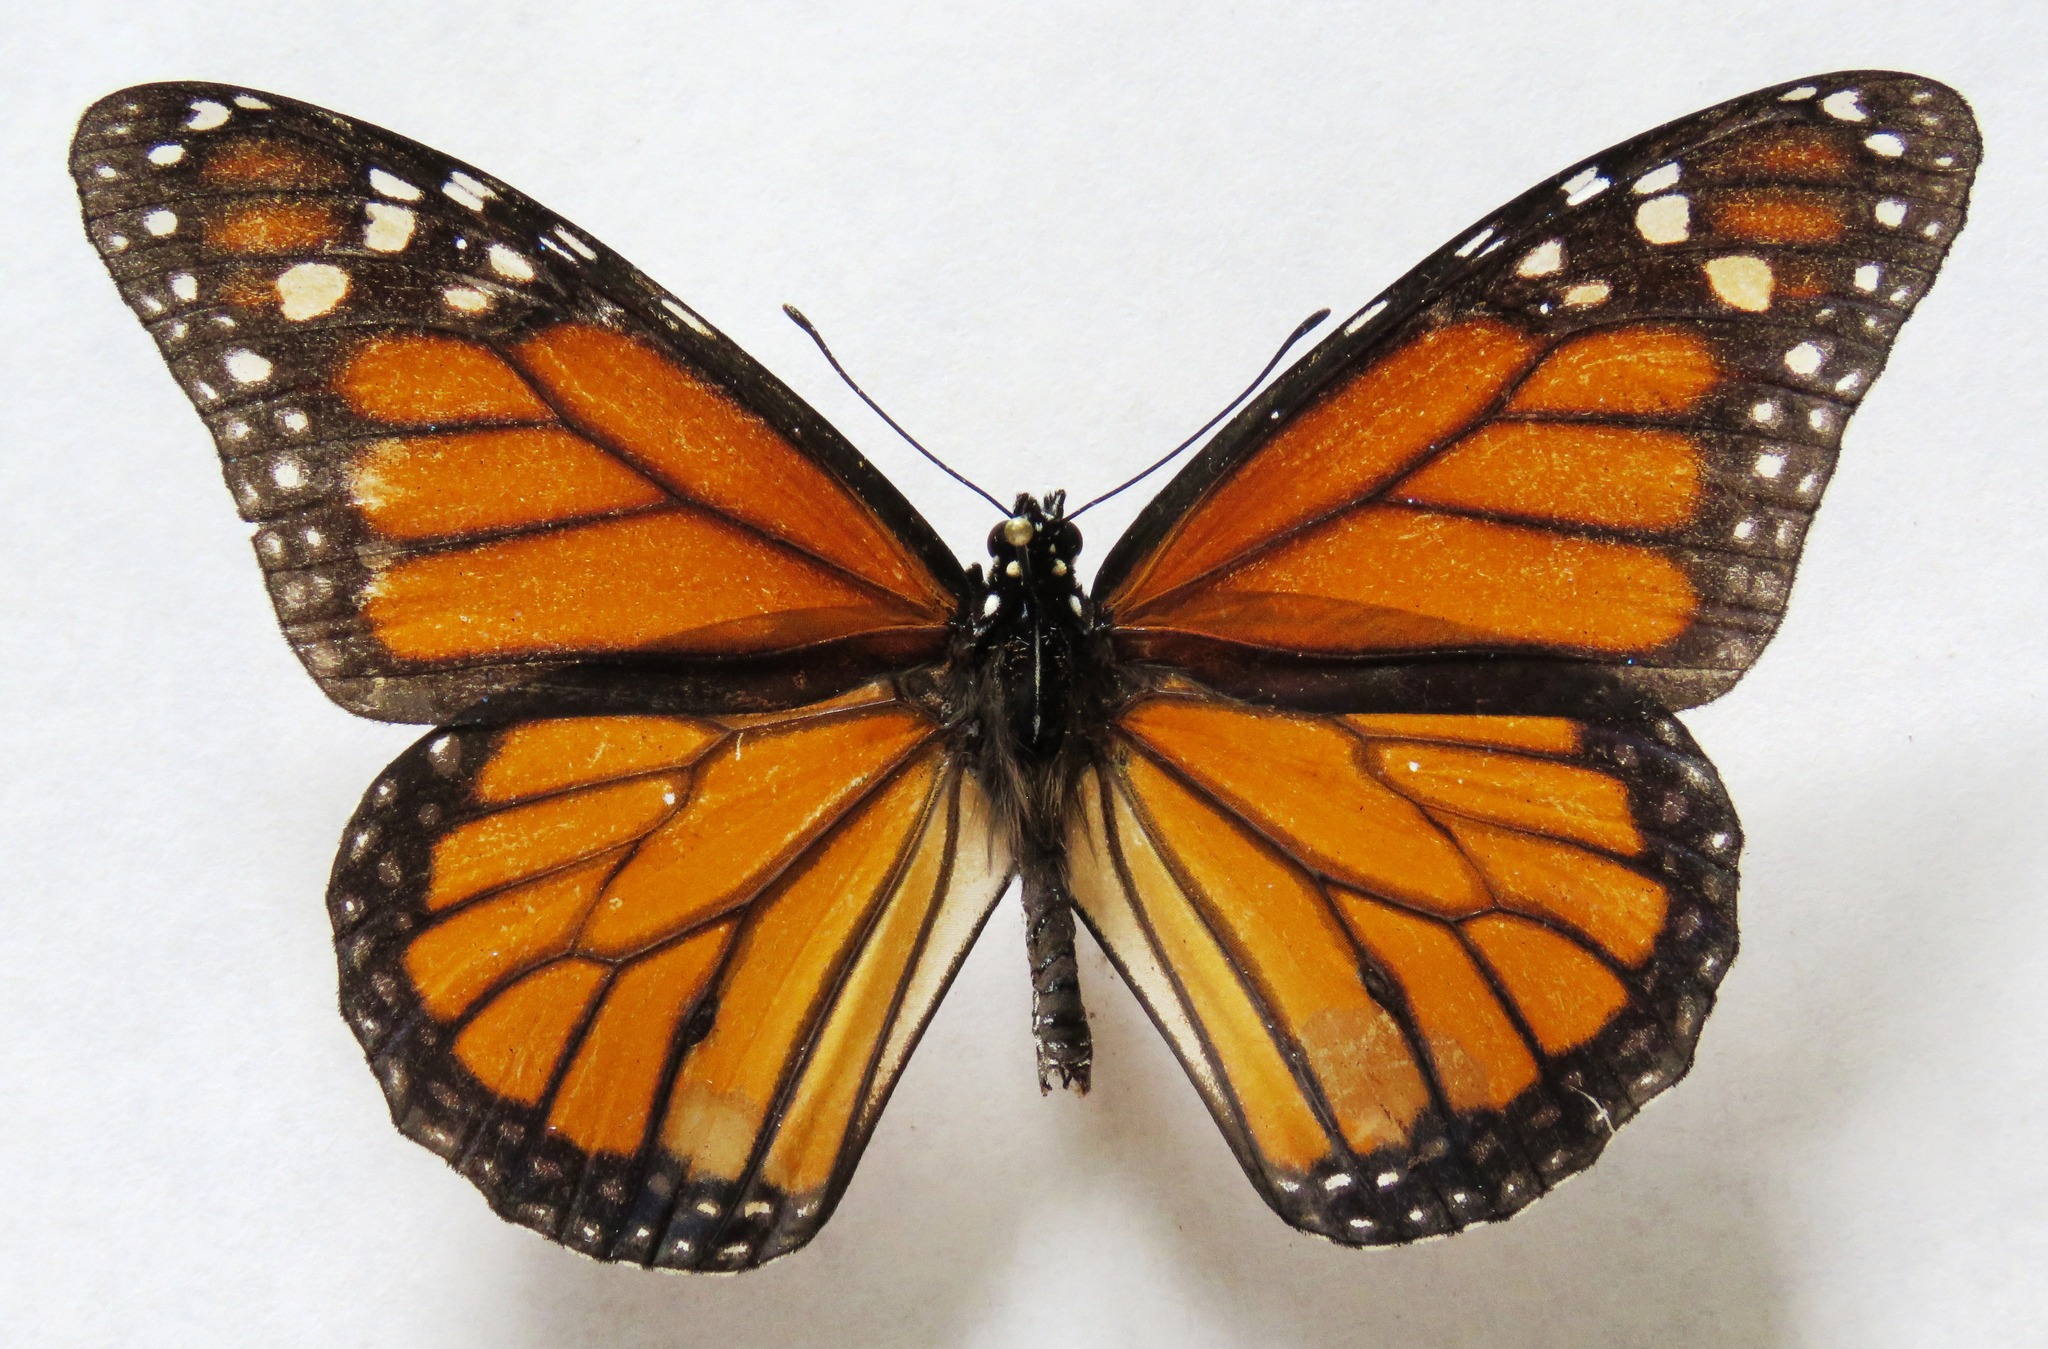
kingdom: Animalia
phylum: Arthropoda
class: Insecta
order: Lepidoptera
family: Nymphalidae
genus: Danaus
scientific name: Danaus plexippus
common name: Monarch
